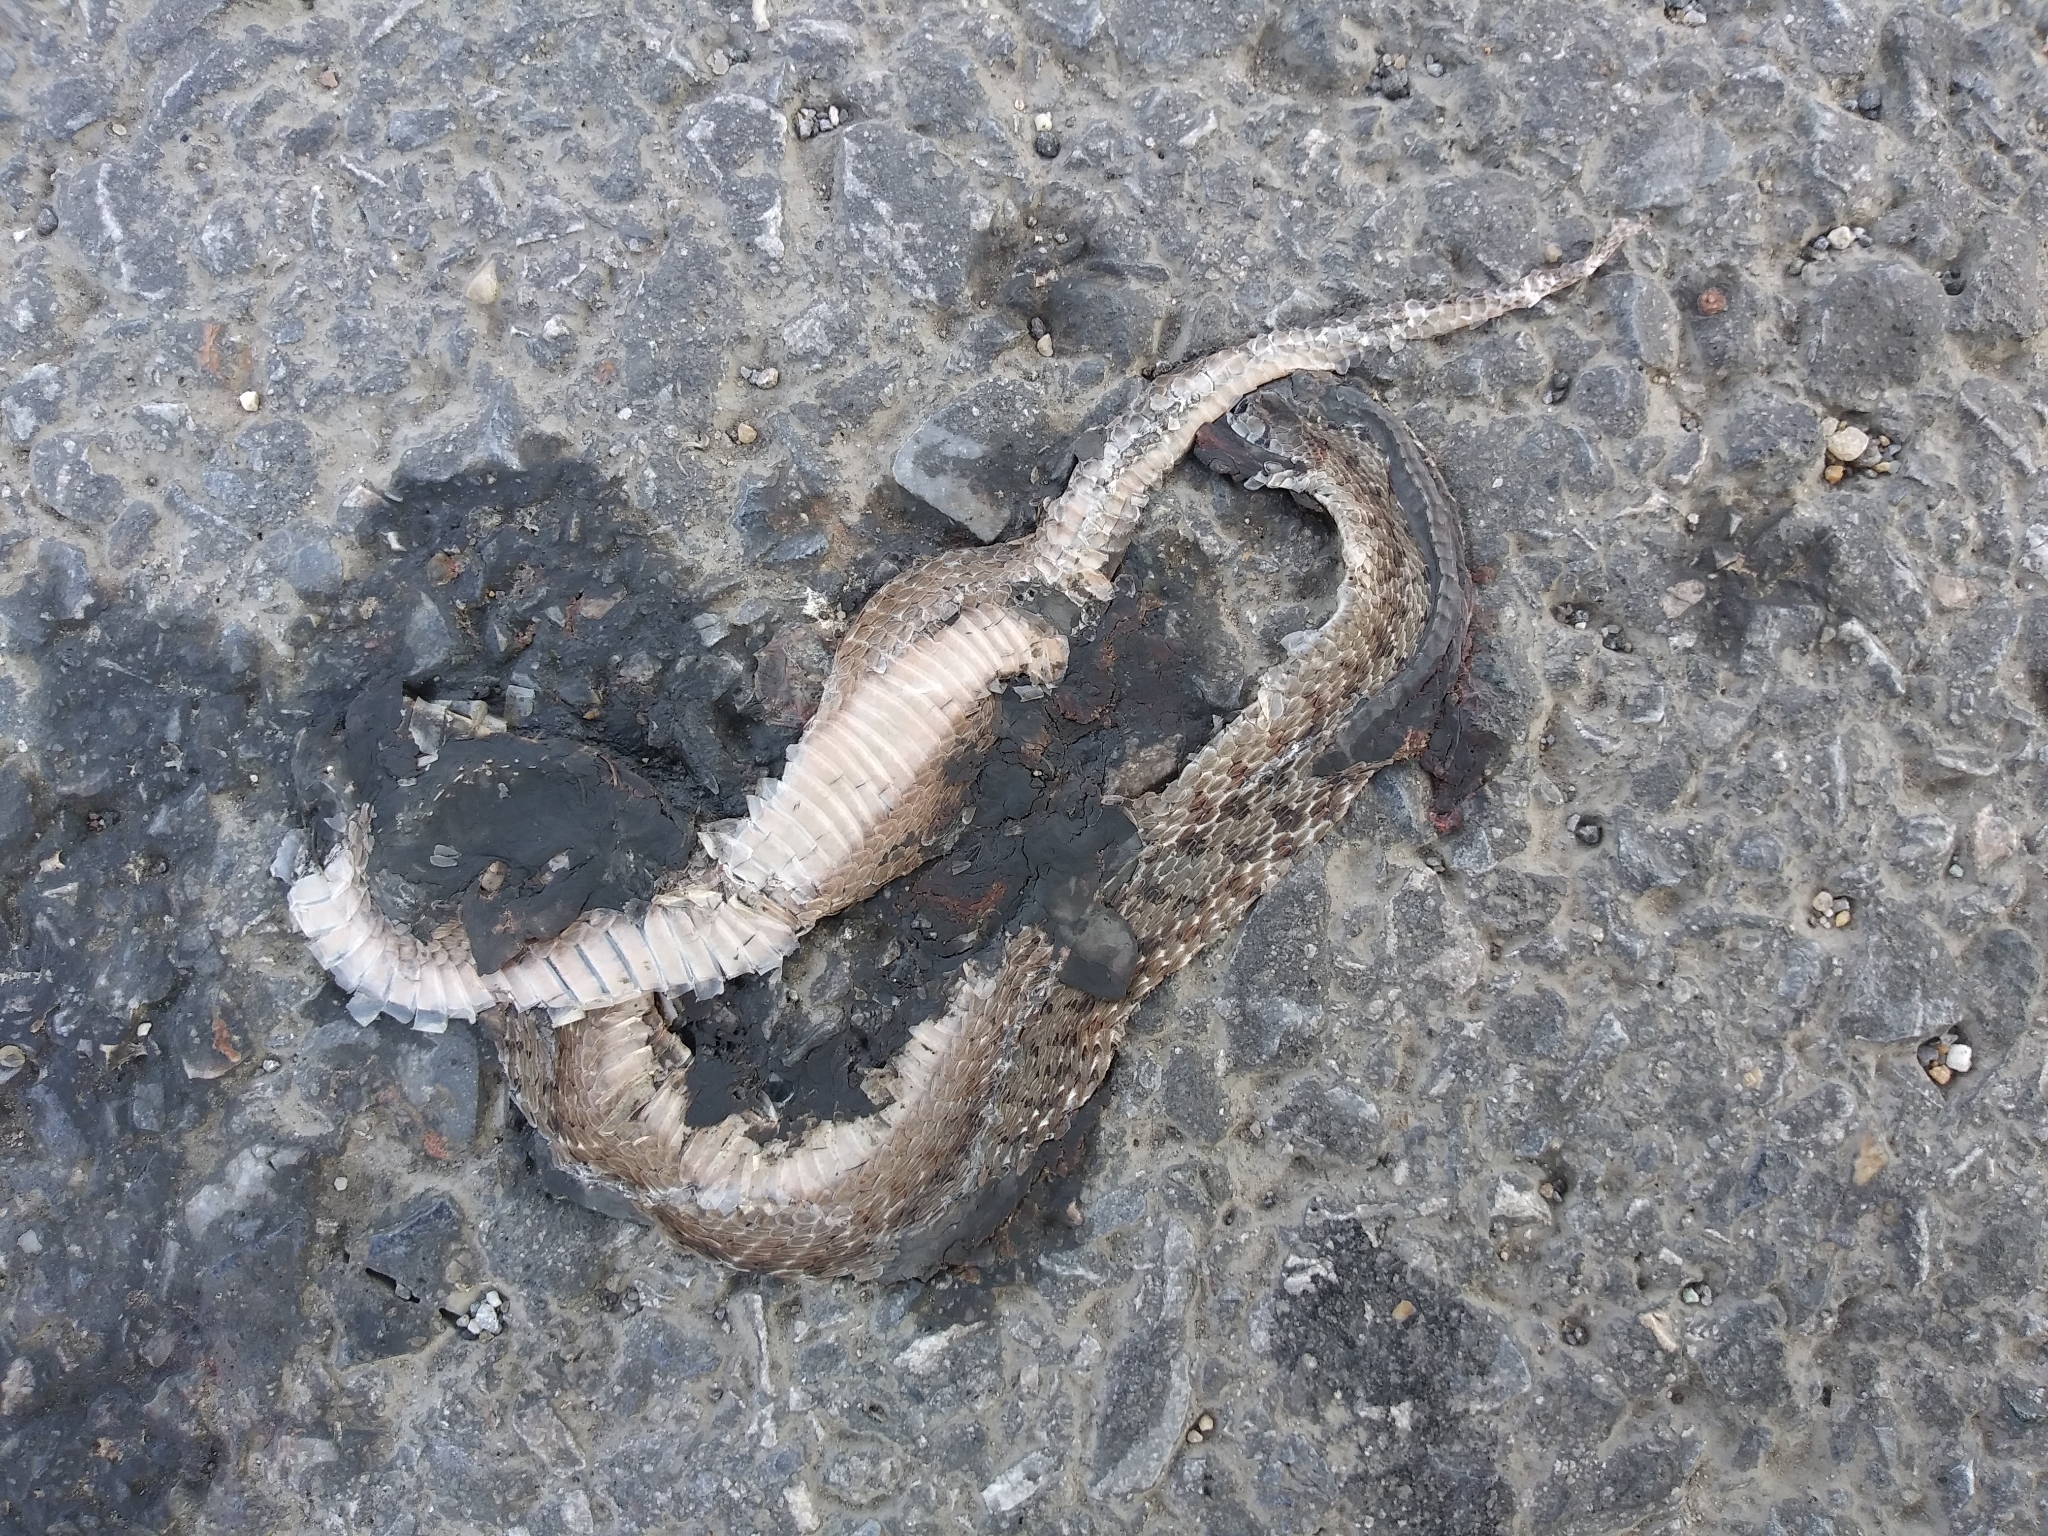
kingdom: Animalia
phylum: Chordata
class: Squamata
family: Colubridae
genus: Storeria
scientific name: Storeria dekayi
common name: (dekay’s) brown snake
